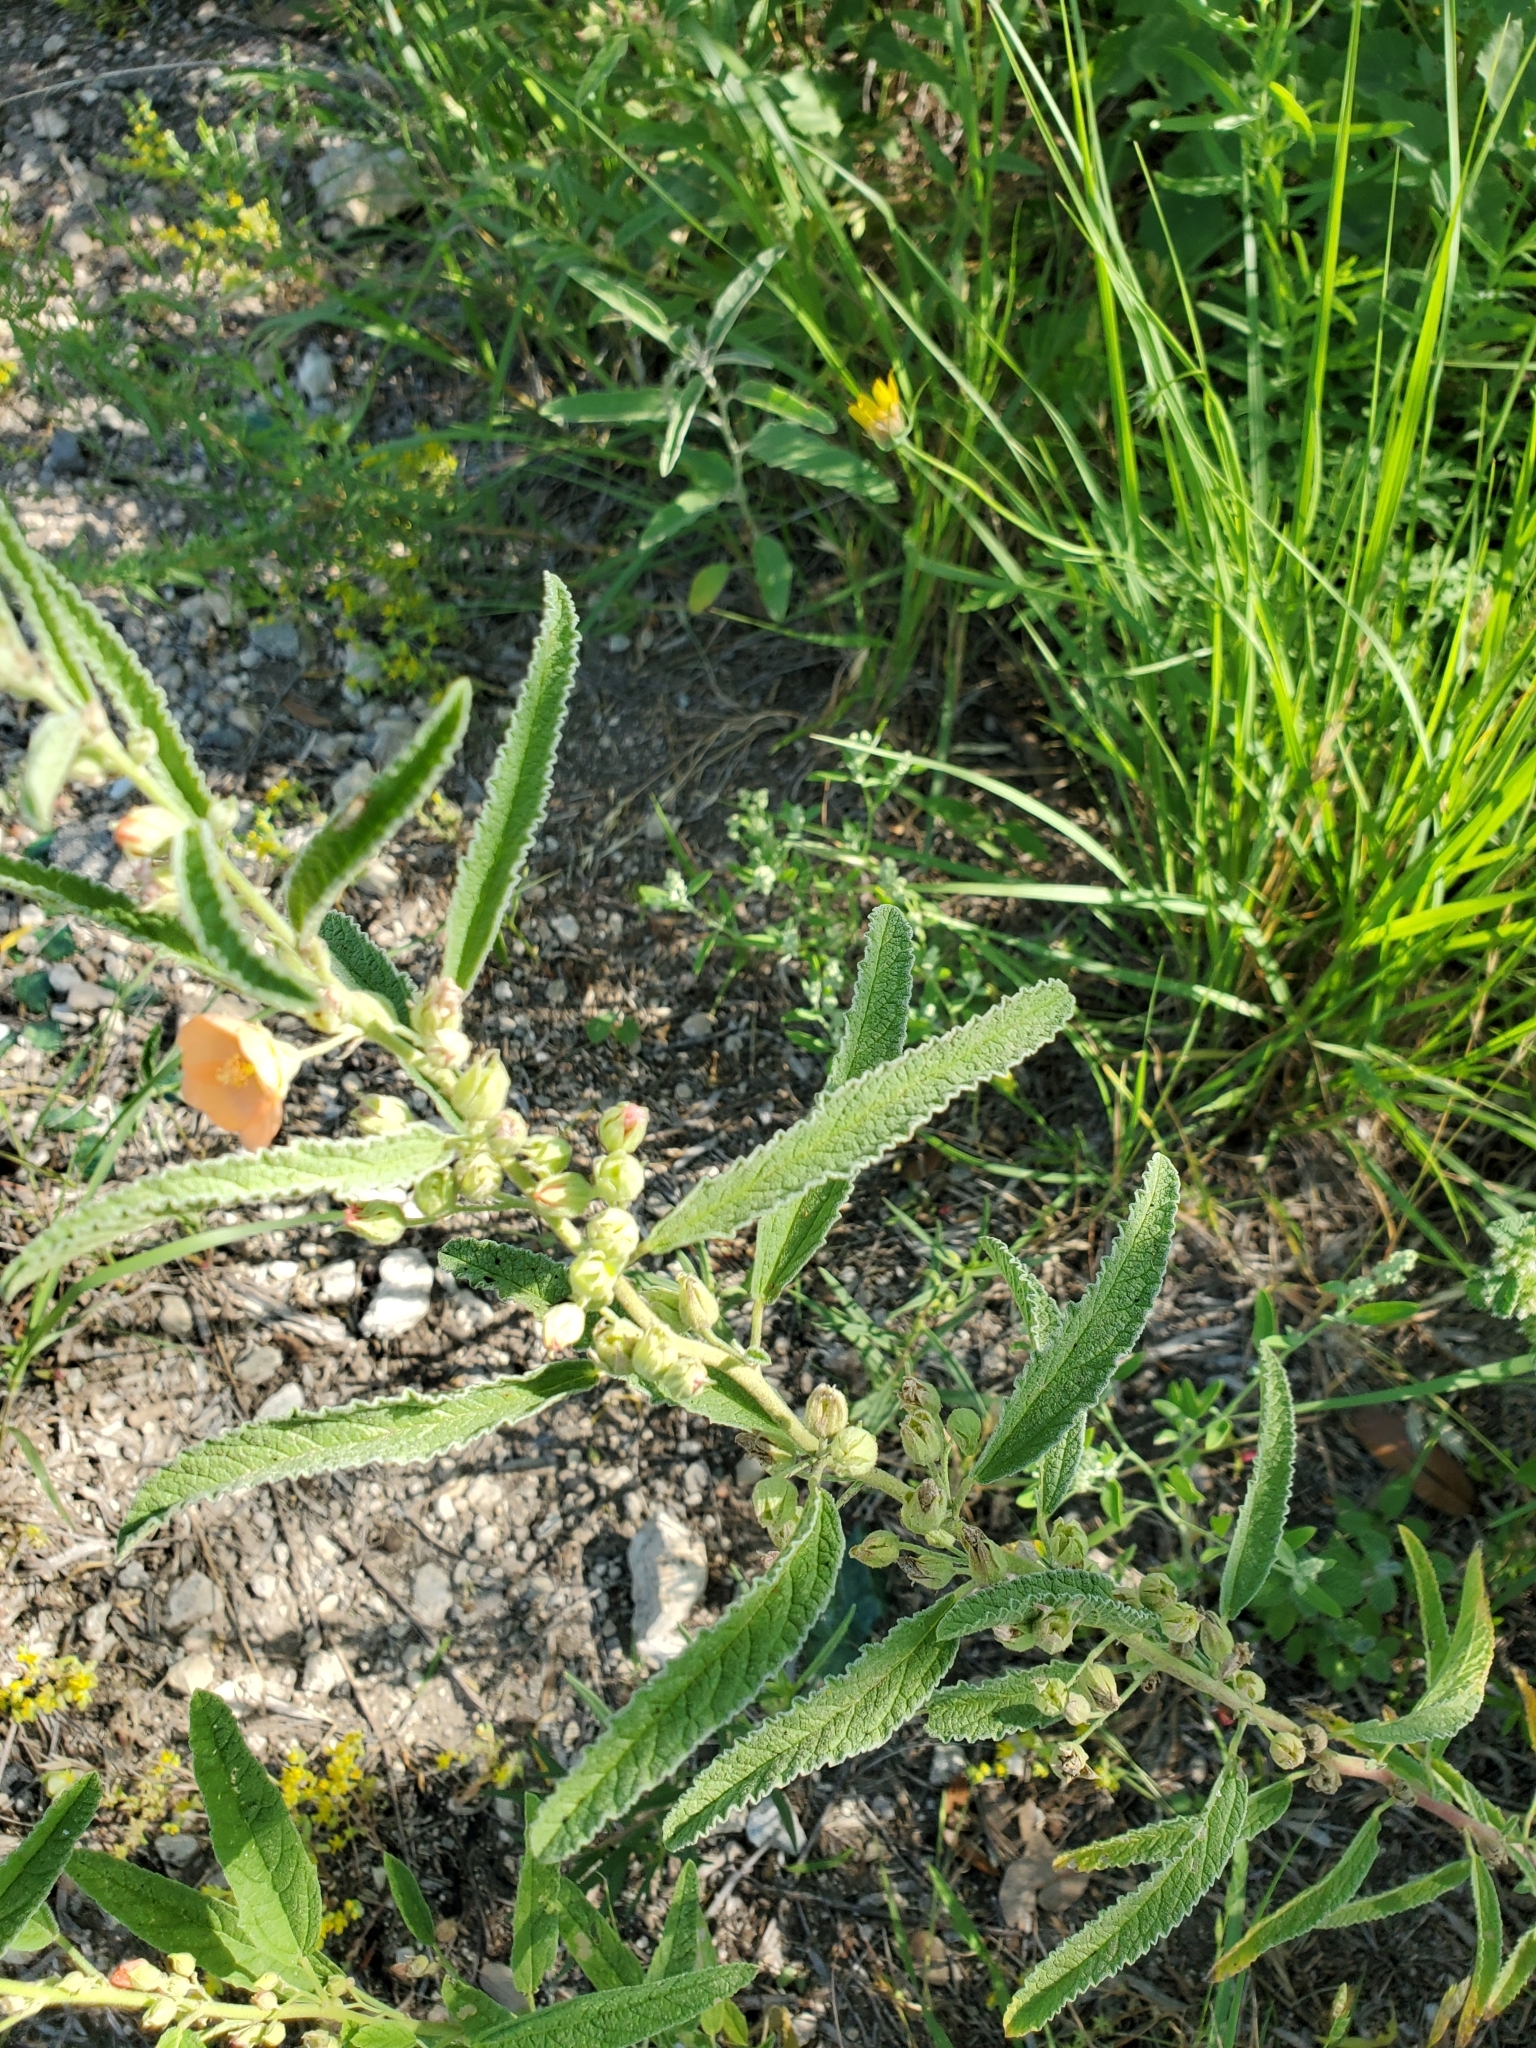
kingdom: Plantae
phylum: Tracheophyta
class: Magnoliopsida
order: Malvales
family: Malvaceae
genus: Sphaeralcea
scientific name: Sphaeralcea angustifolia
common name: Copper globe-mallow
